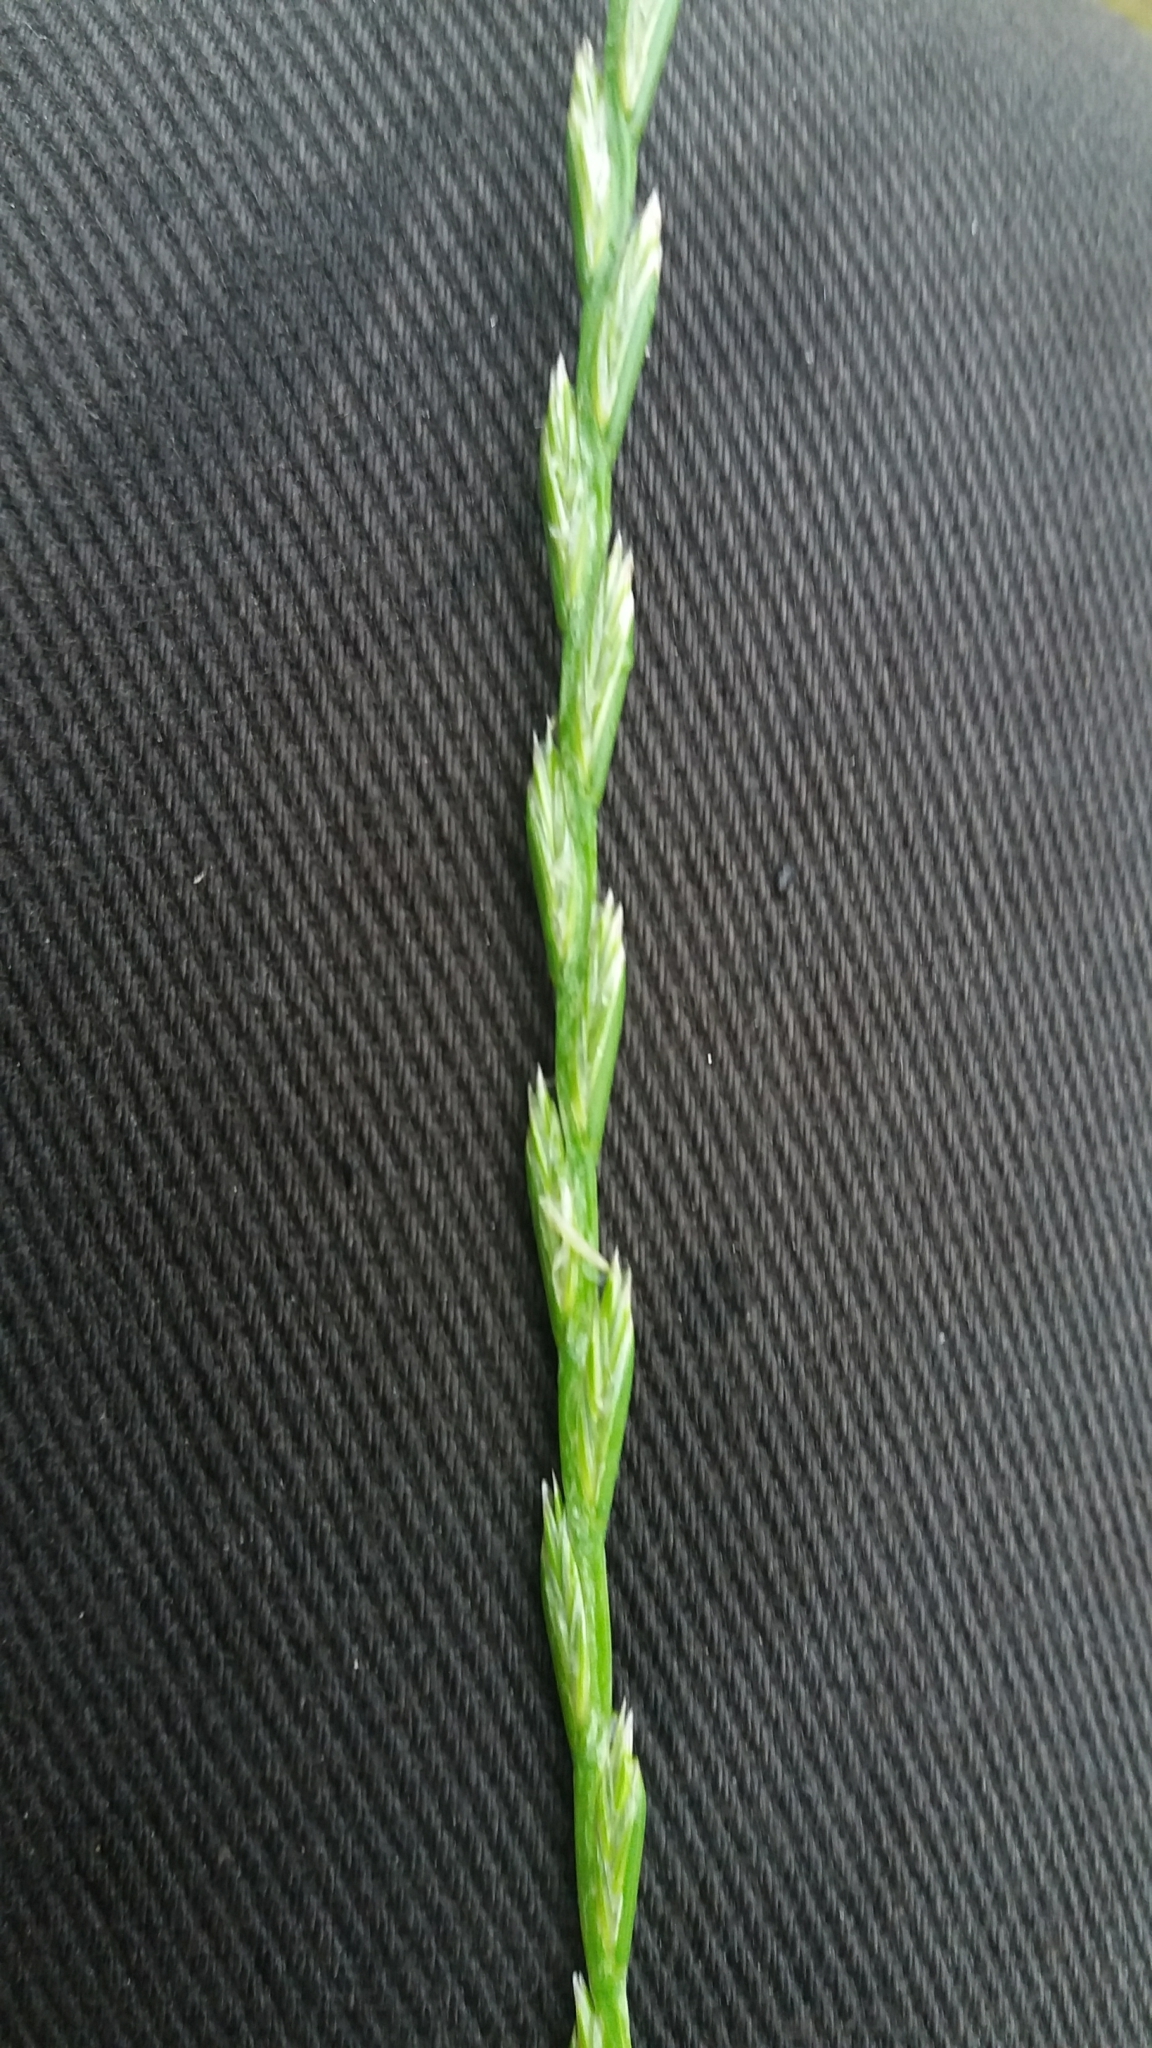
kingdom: Plantae
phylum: Tracheophyta
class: Liliopsida
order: Poales
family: Poaceae
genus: Lolium
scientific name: Lolium perenne
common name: Perennial ryegrass
